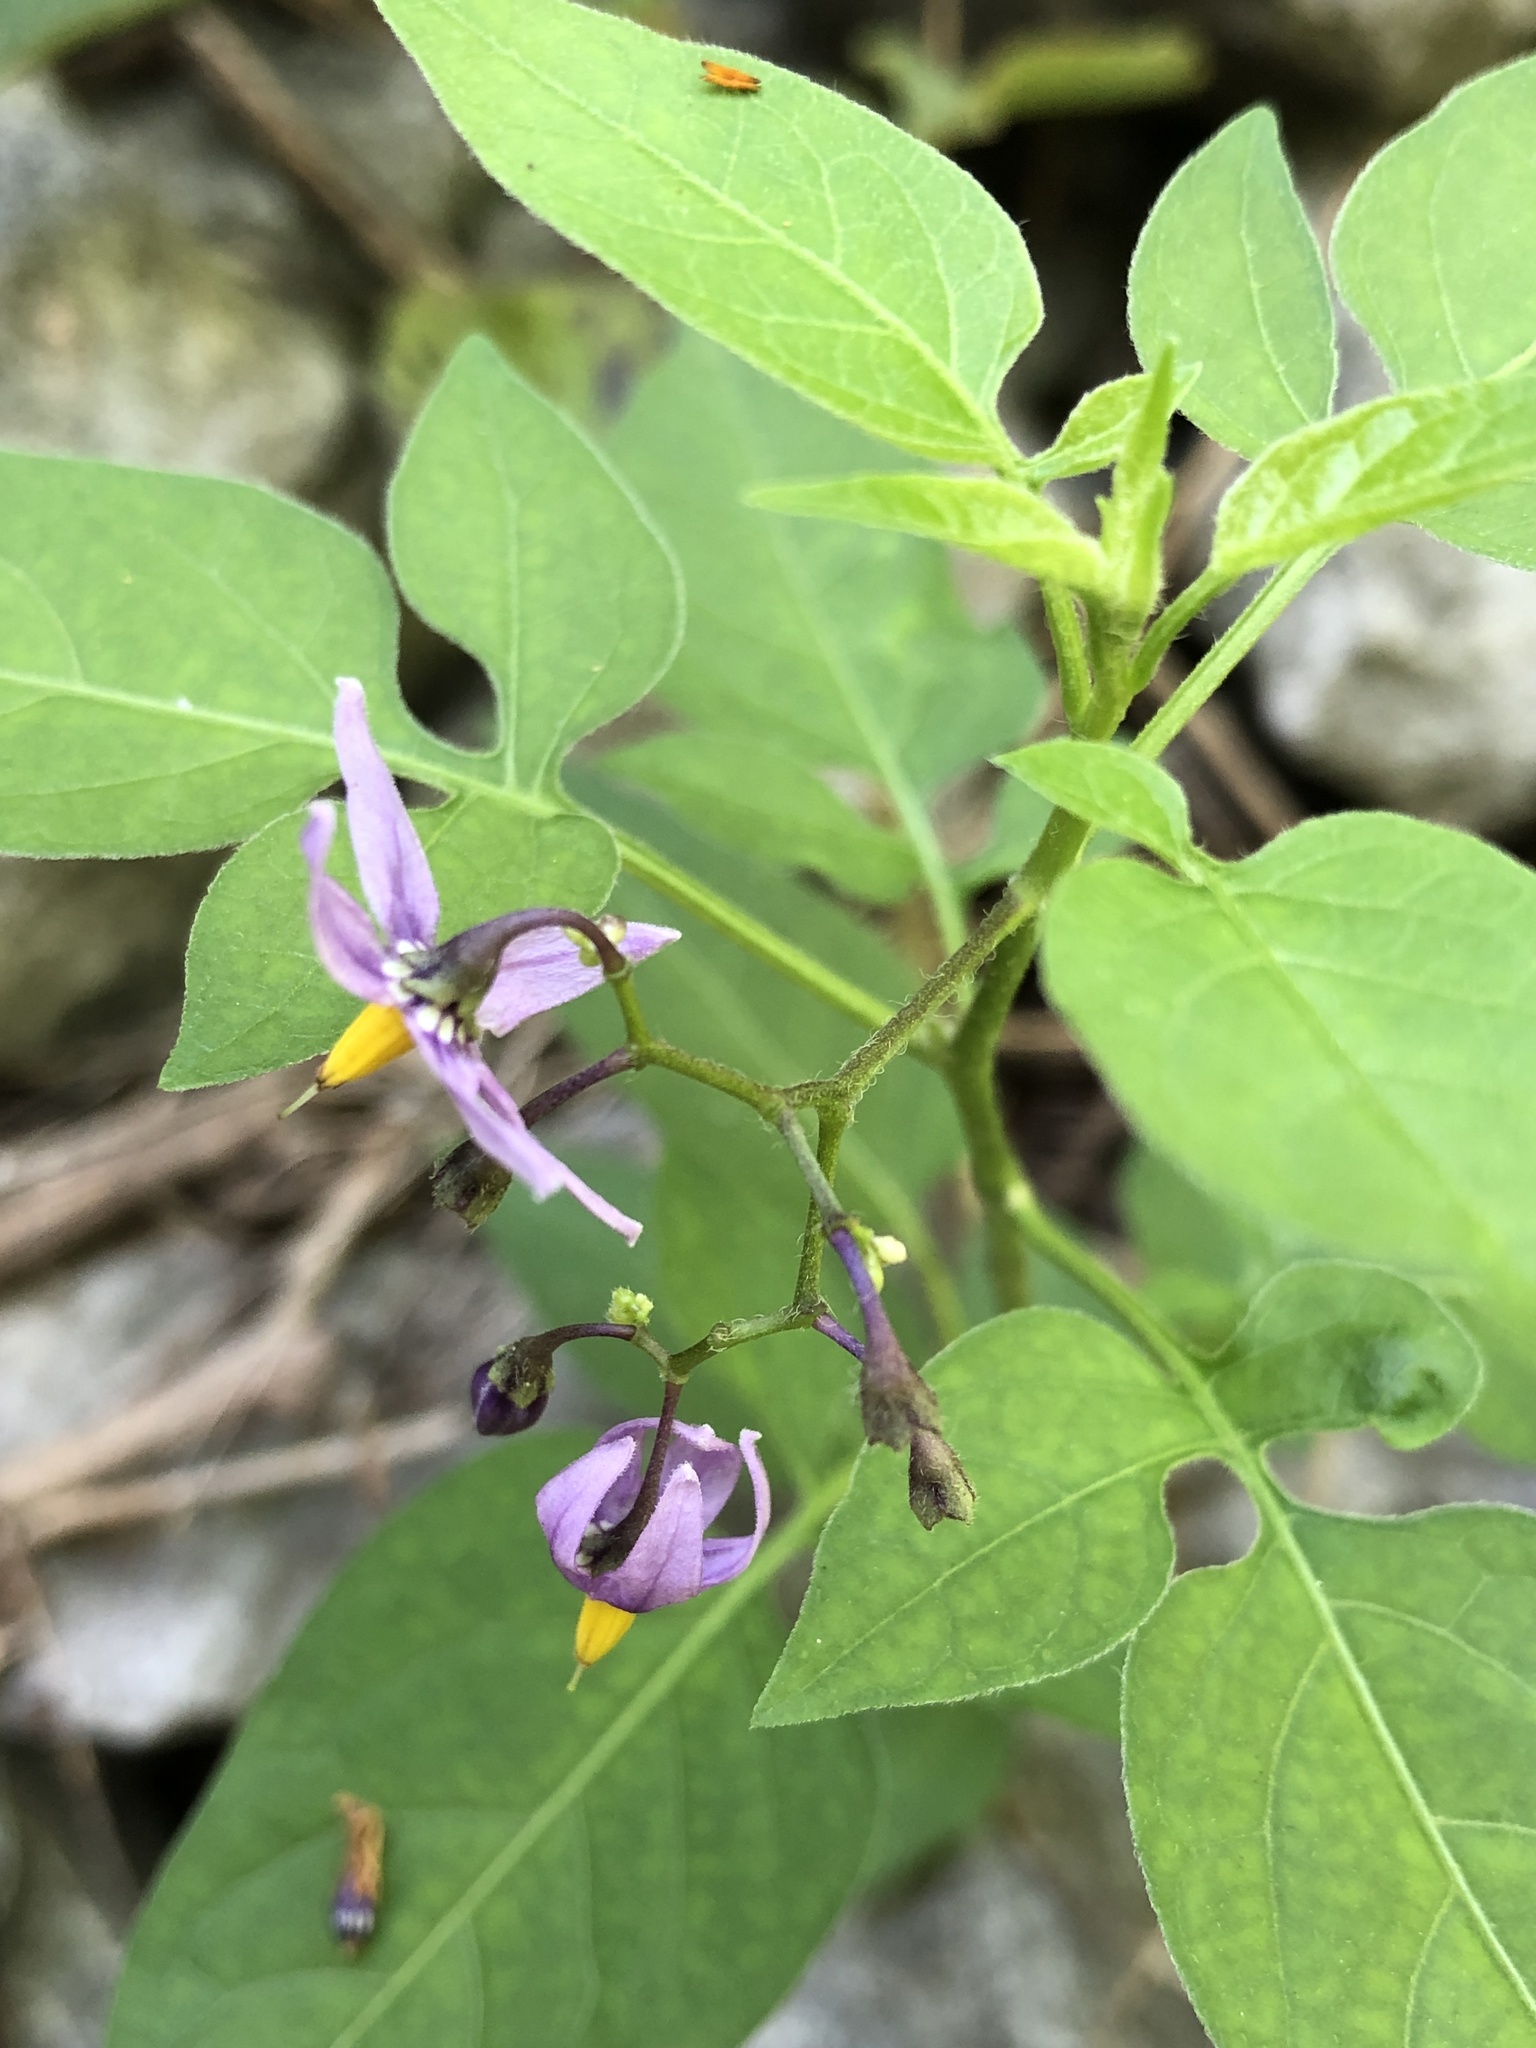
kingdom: Plantae
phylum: Tracheophyta
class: Magnoliopsida
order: Solanales
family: Solanaceae
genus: Solanum
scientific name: Solanum dulcamara
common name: Climbing nightshade
